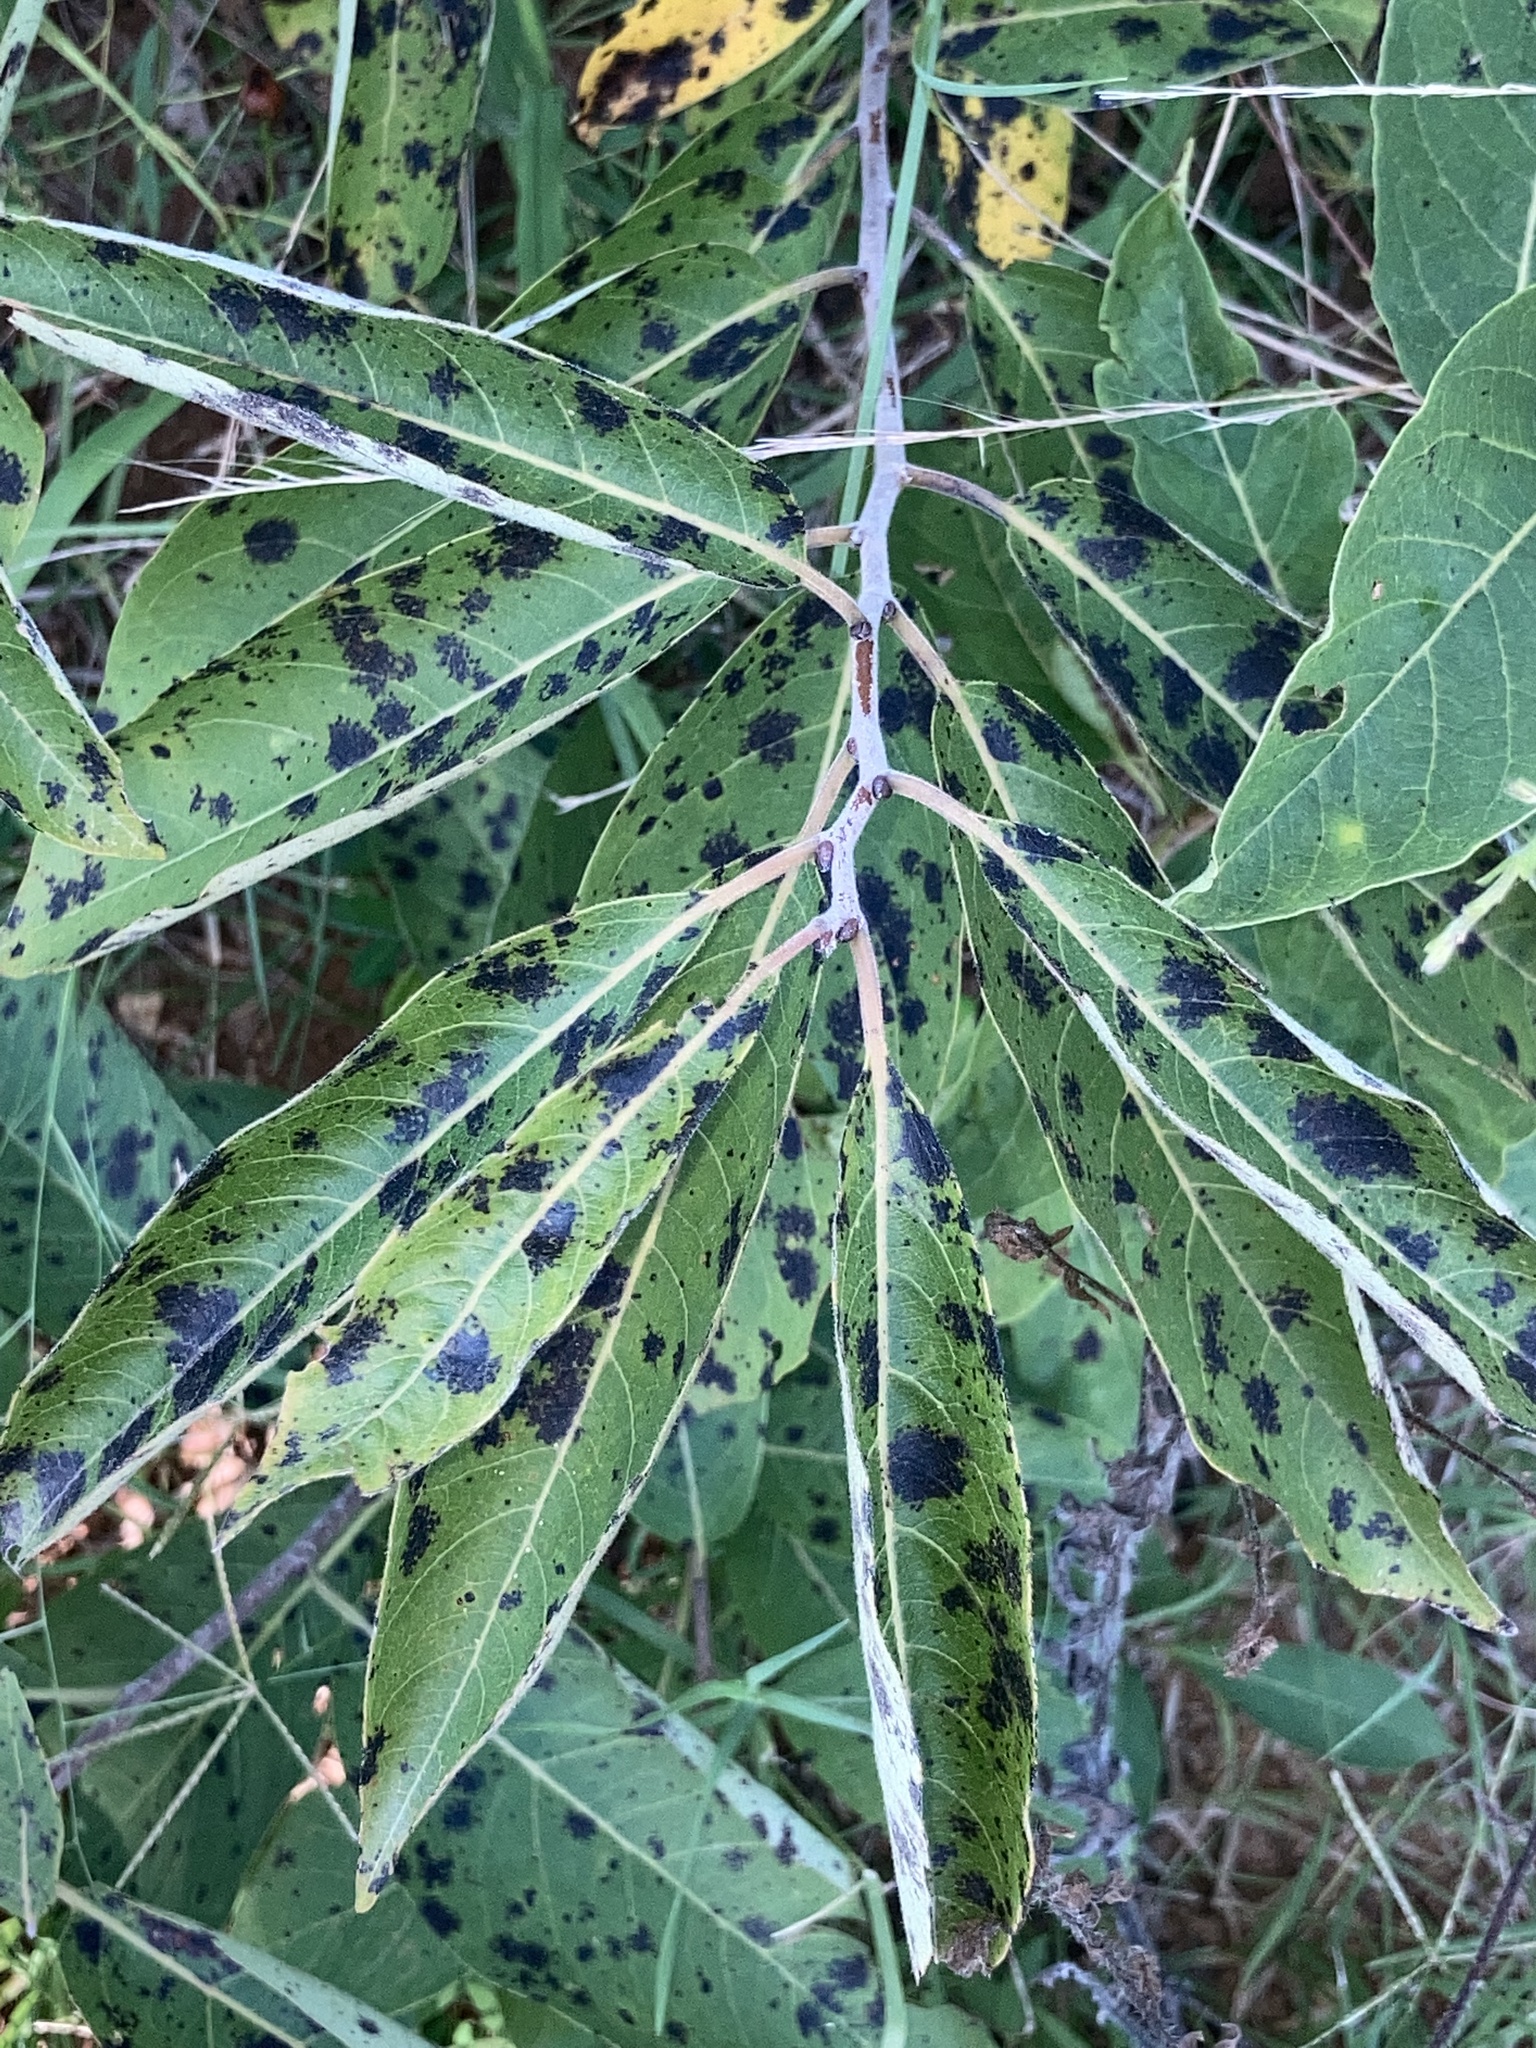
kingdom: Plantae
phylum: Tracheophyta
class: Magnoliopsida
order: Ericales
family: Ebenaceae
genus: Diospyros
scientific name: Diospyros virginiana
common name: Persimmon
